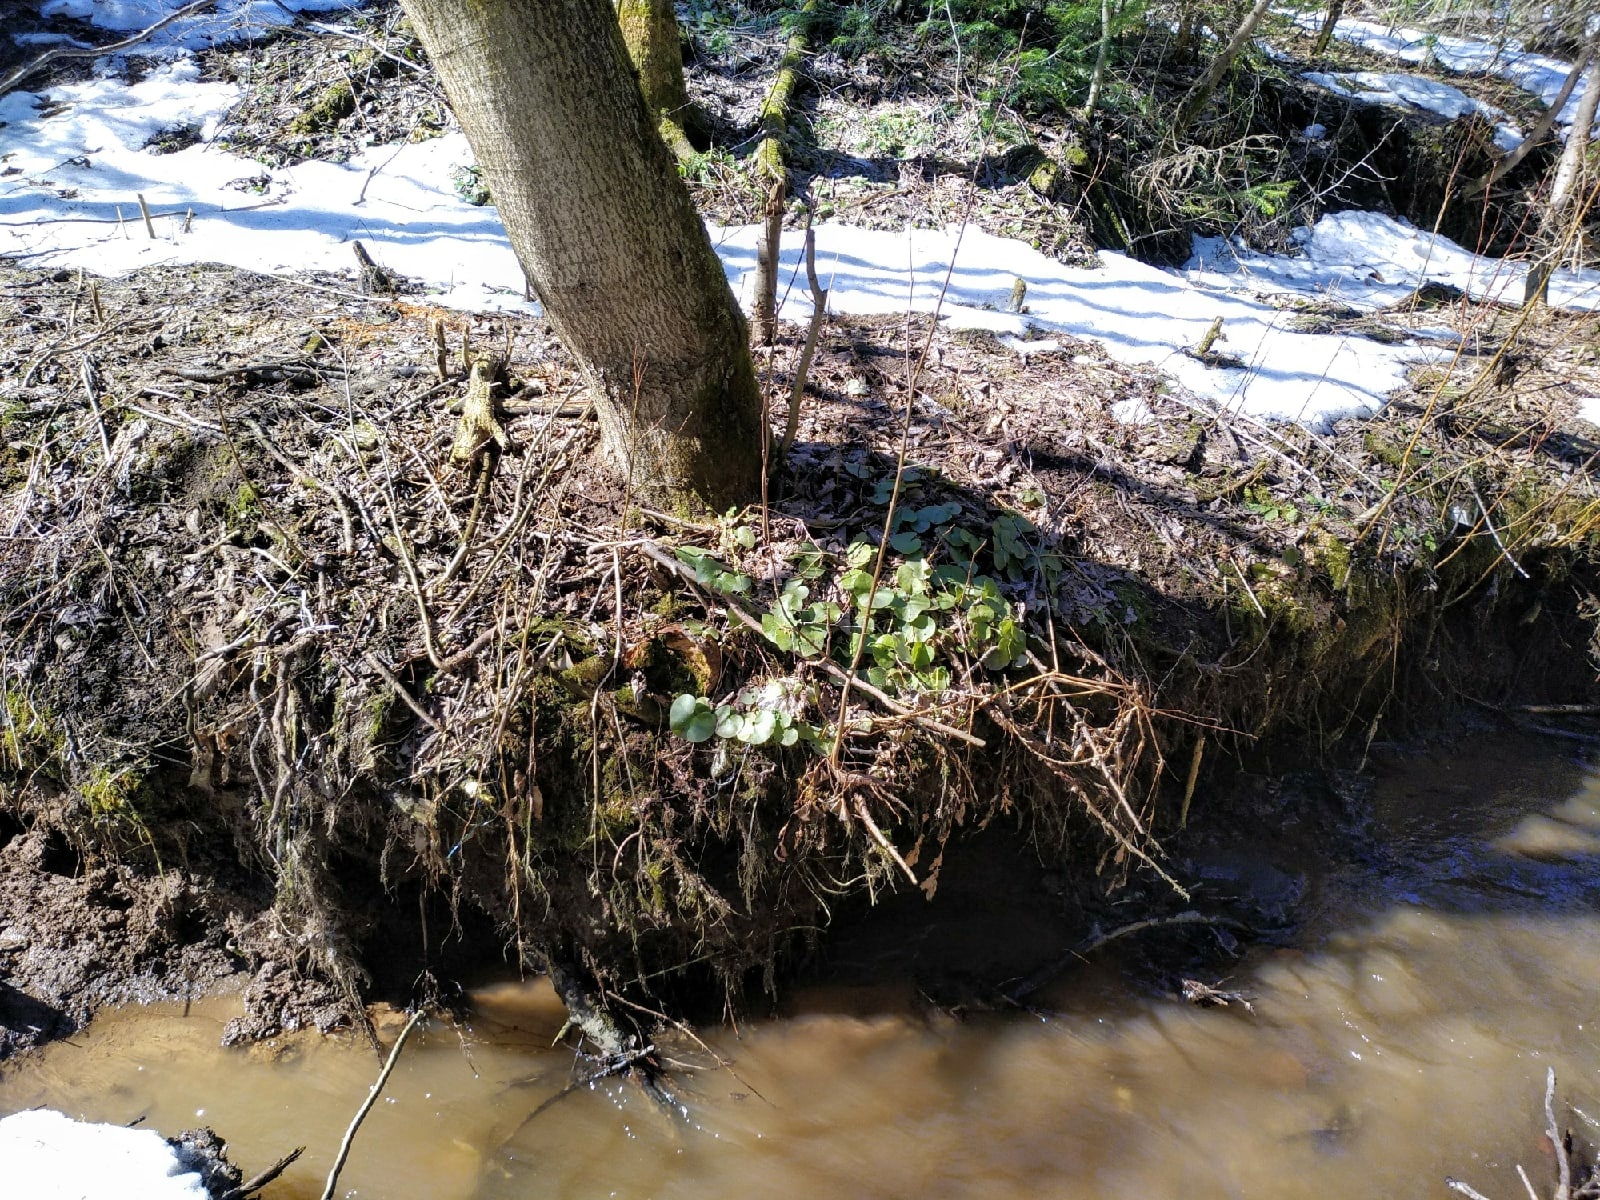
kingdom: Plantae
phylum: Tracheophyta
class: Magnoliopsida
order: Piperales
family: Aristolochiaceae
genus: Asarum
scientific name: Asarum europaeum
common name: Asarabacca
